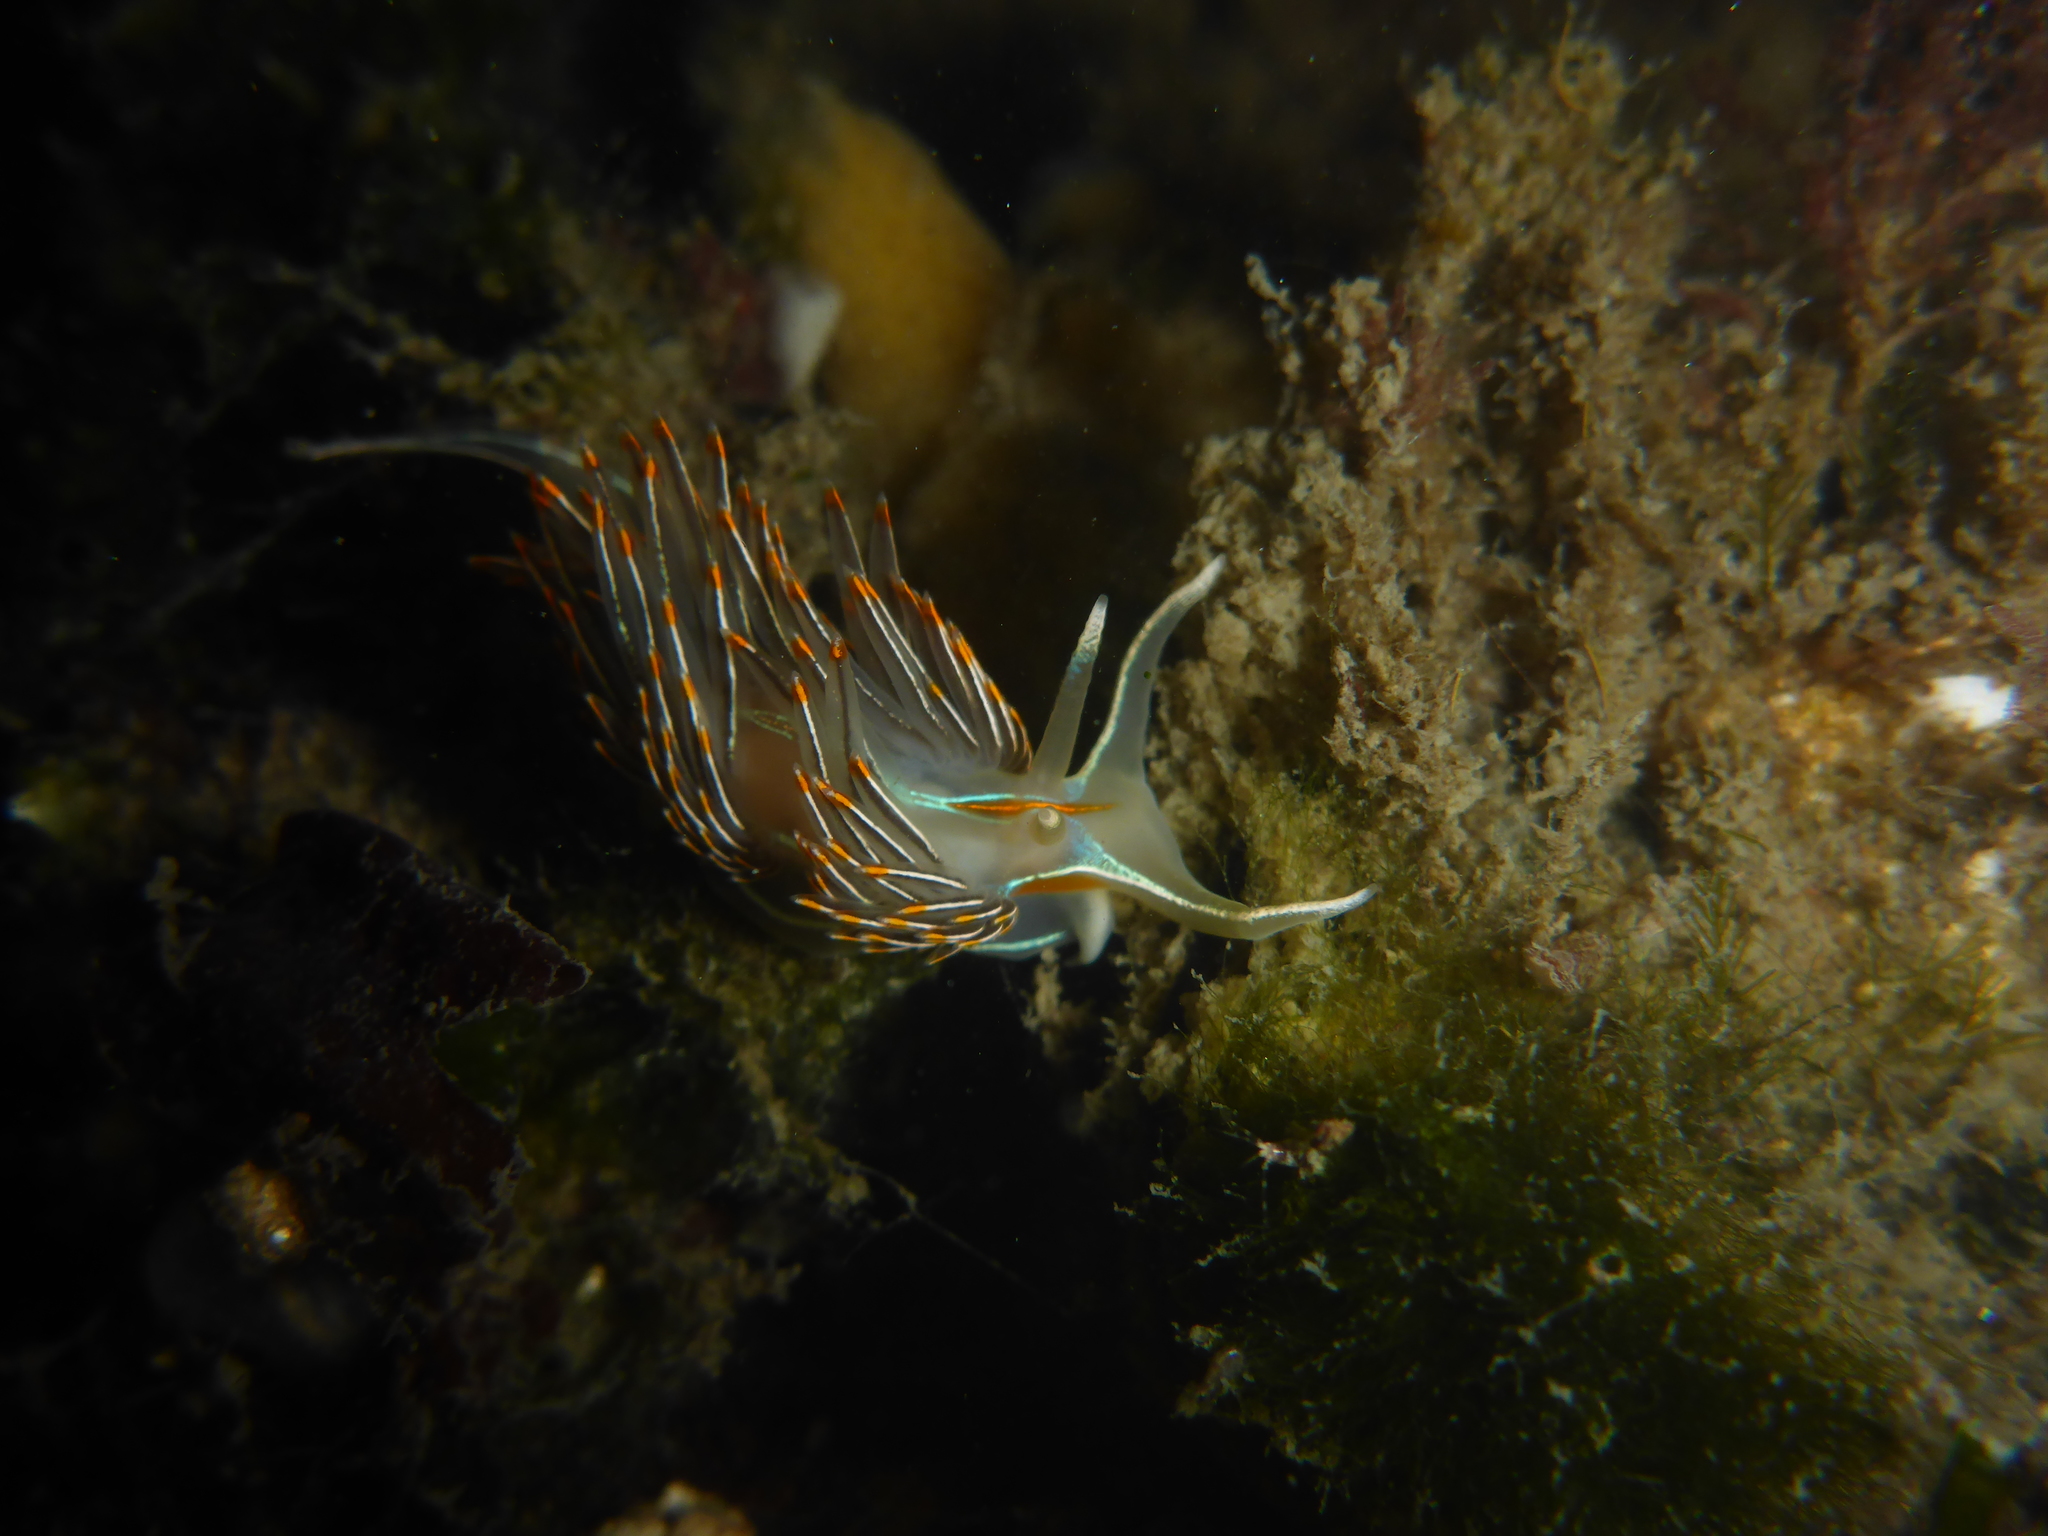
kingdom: Animalia
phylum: Mollusca
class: Gastropoda
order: Nudibranchia
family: Myrrhinidae
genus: Hermissenda
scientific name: Hermissenda crassicornis
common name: Hermissenda
